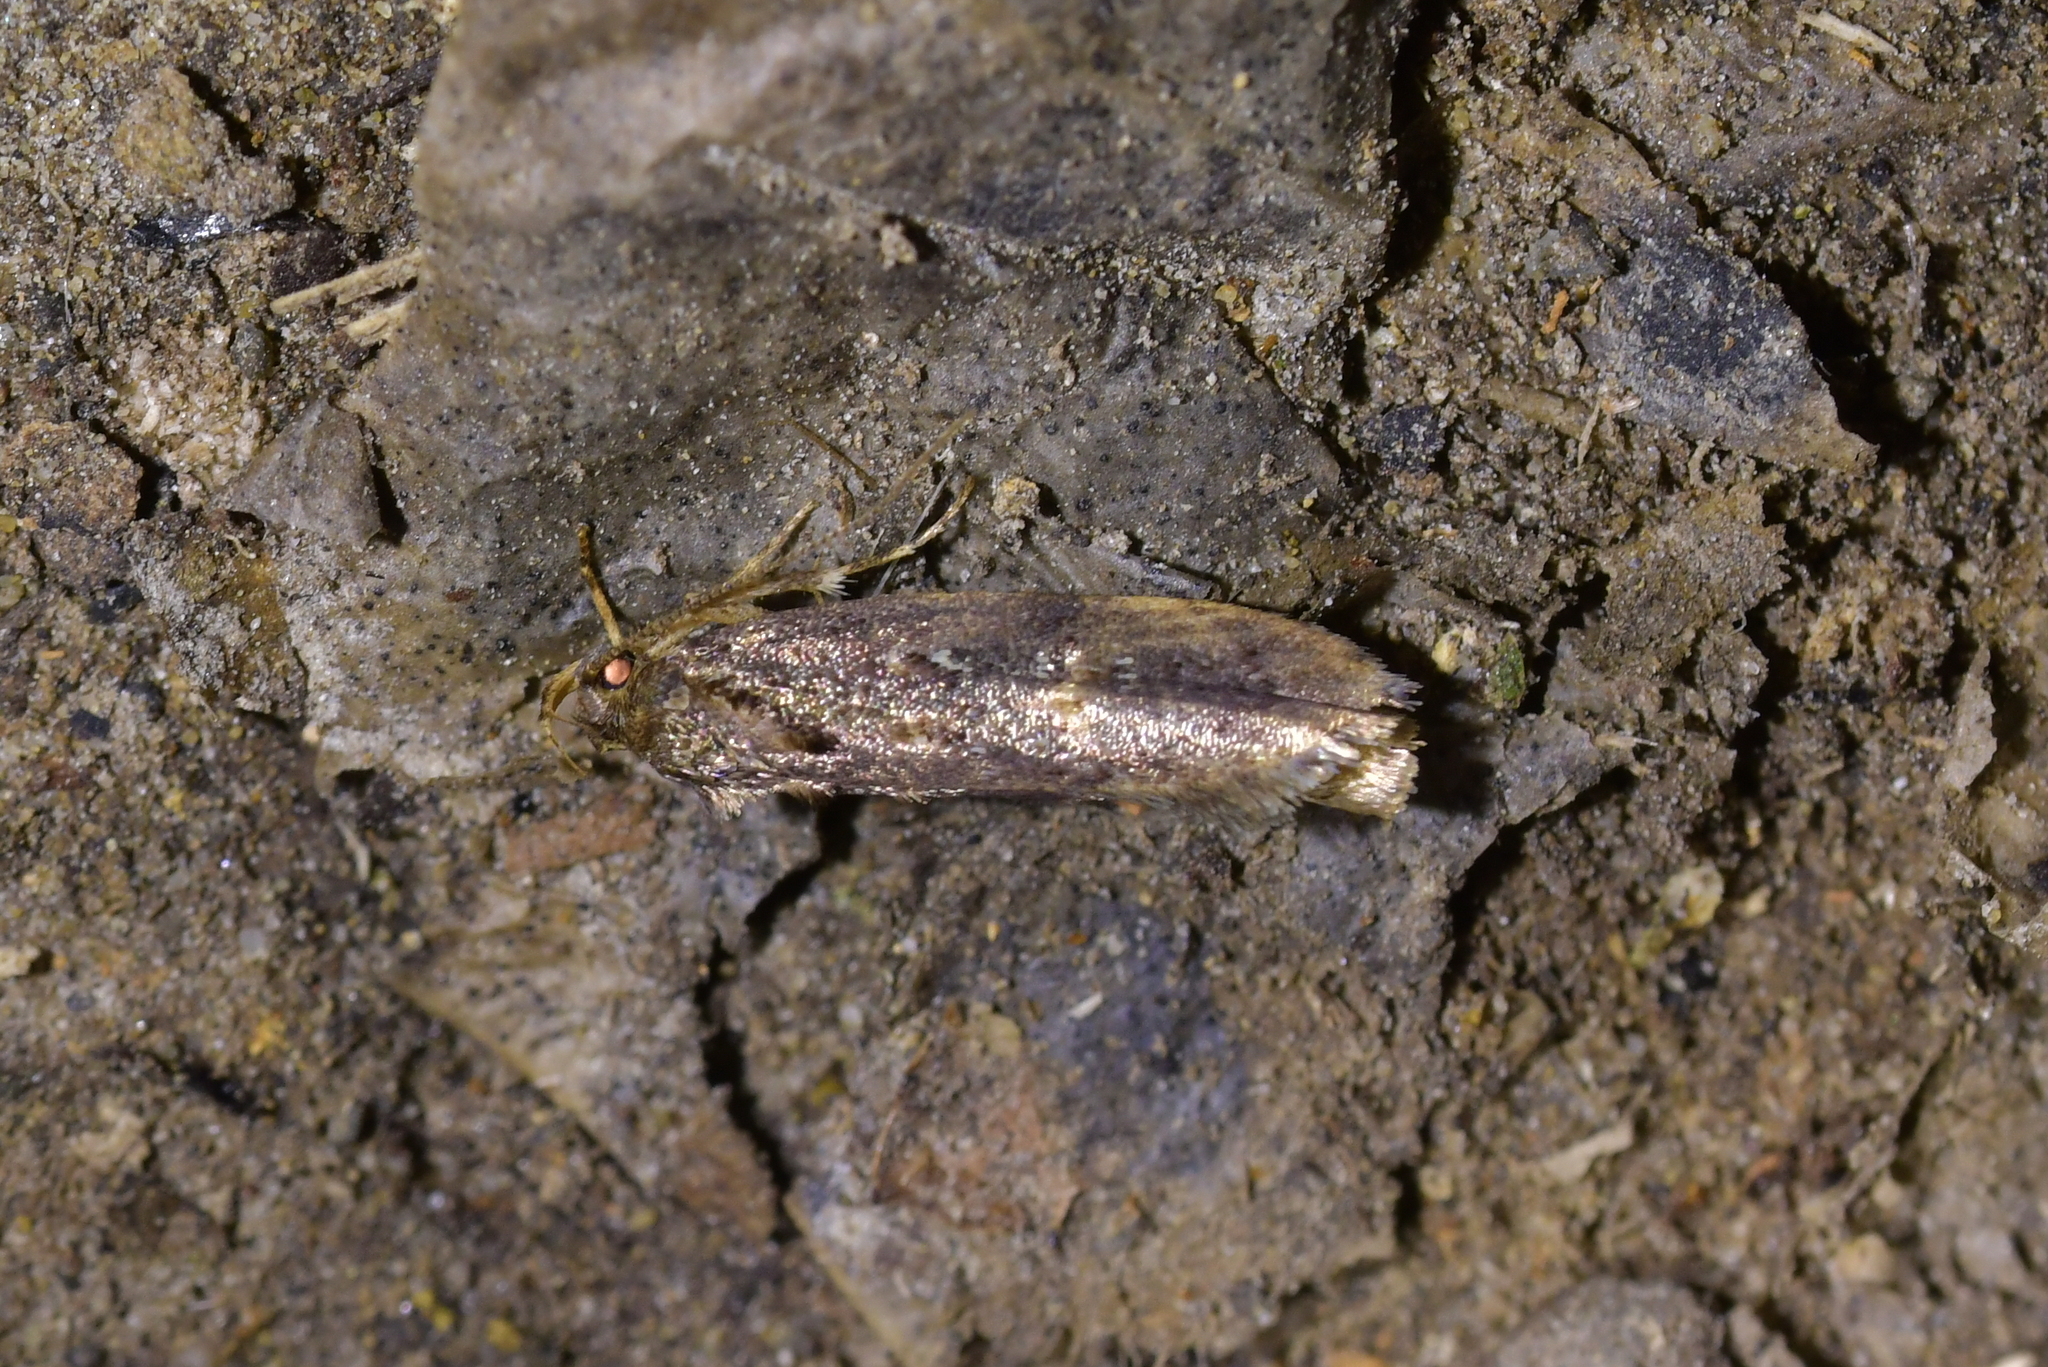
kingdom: Animalia
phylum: Arthropoda
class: Insecta
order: Lepidoptera
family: Tortricidae
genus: Cryptaspasma
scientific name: Cryptaspasma querula
